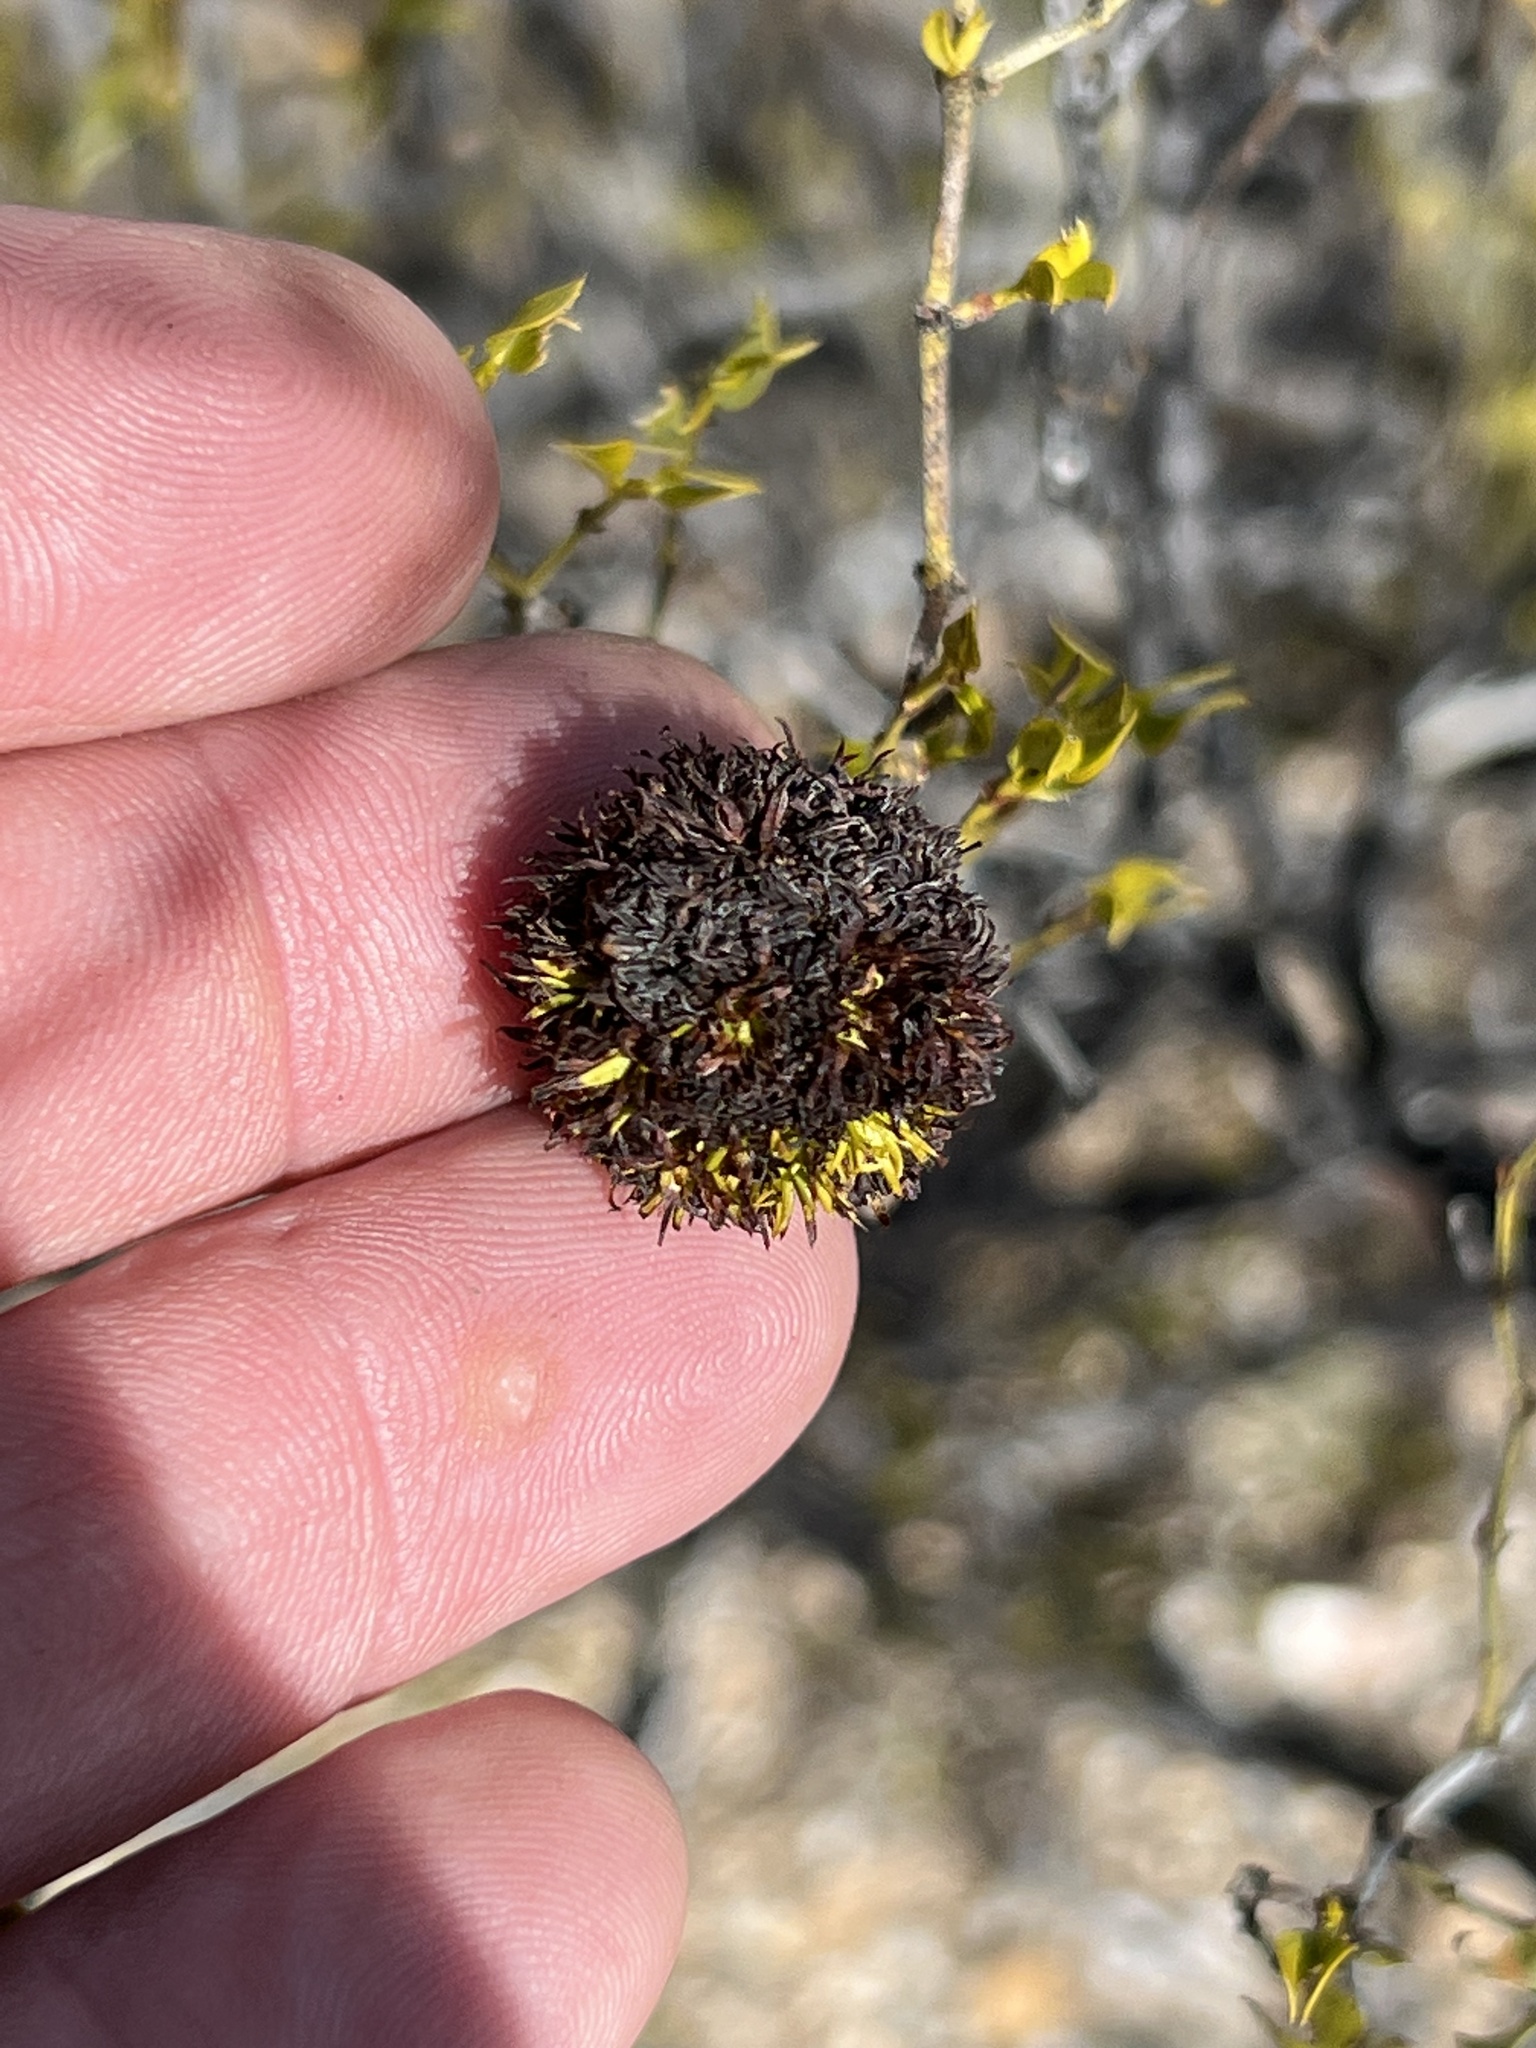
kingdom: Animalia
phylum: Arthropoda
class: Insecta
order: Diptera
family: Cecidomyiidae
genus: Asphondylia
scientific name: Asphondylia auripila
